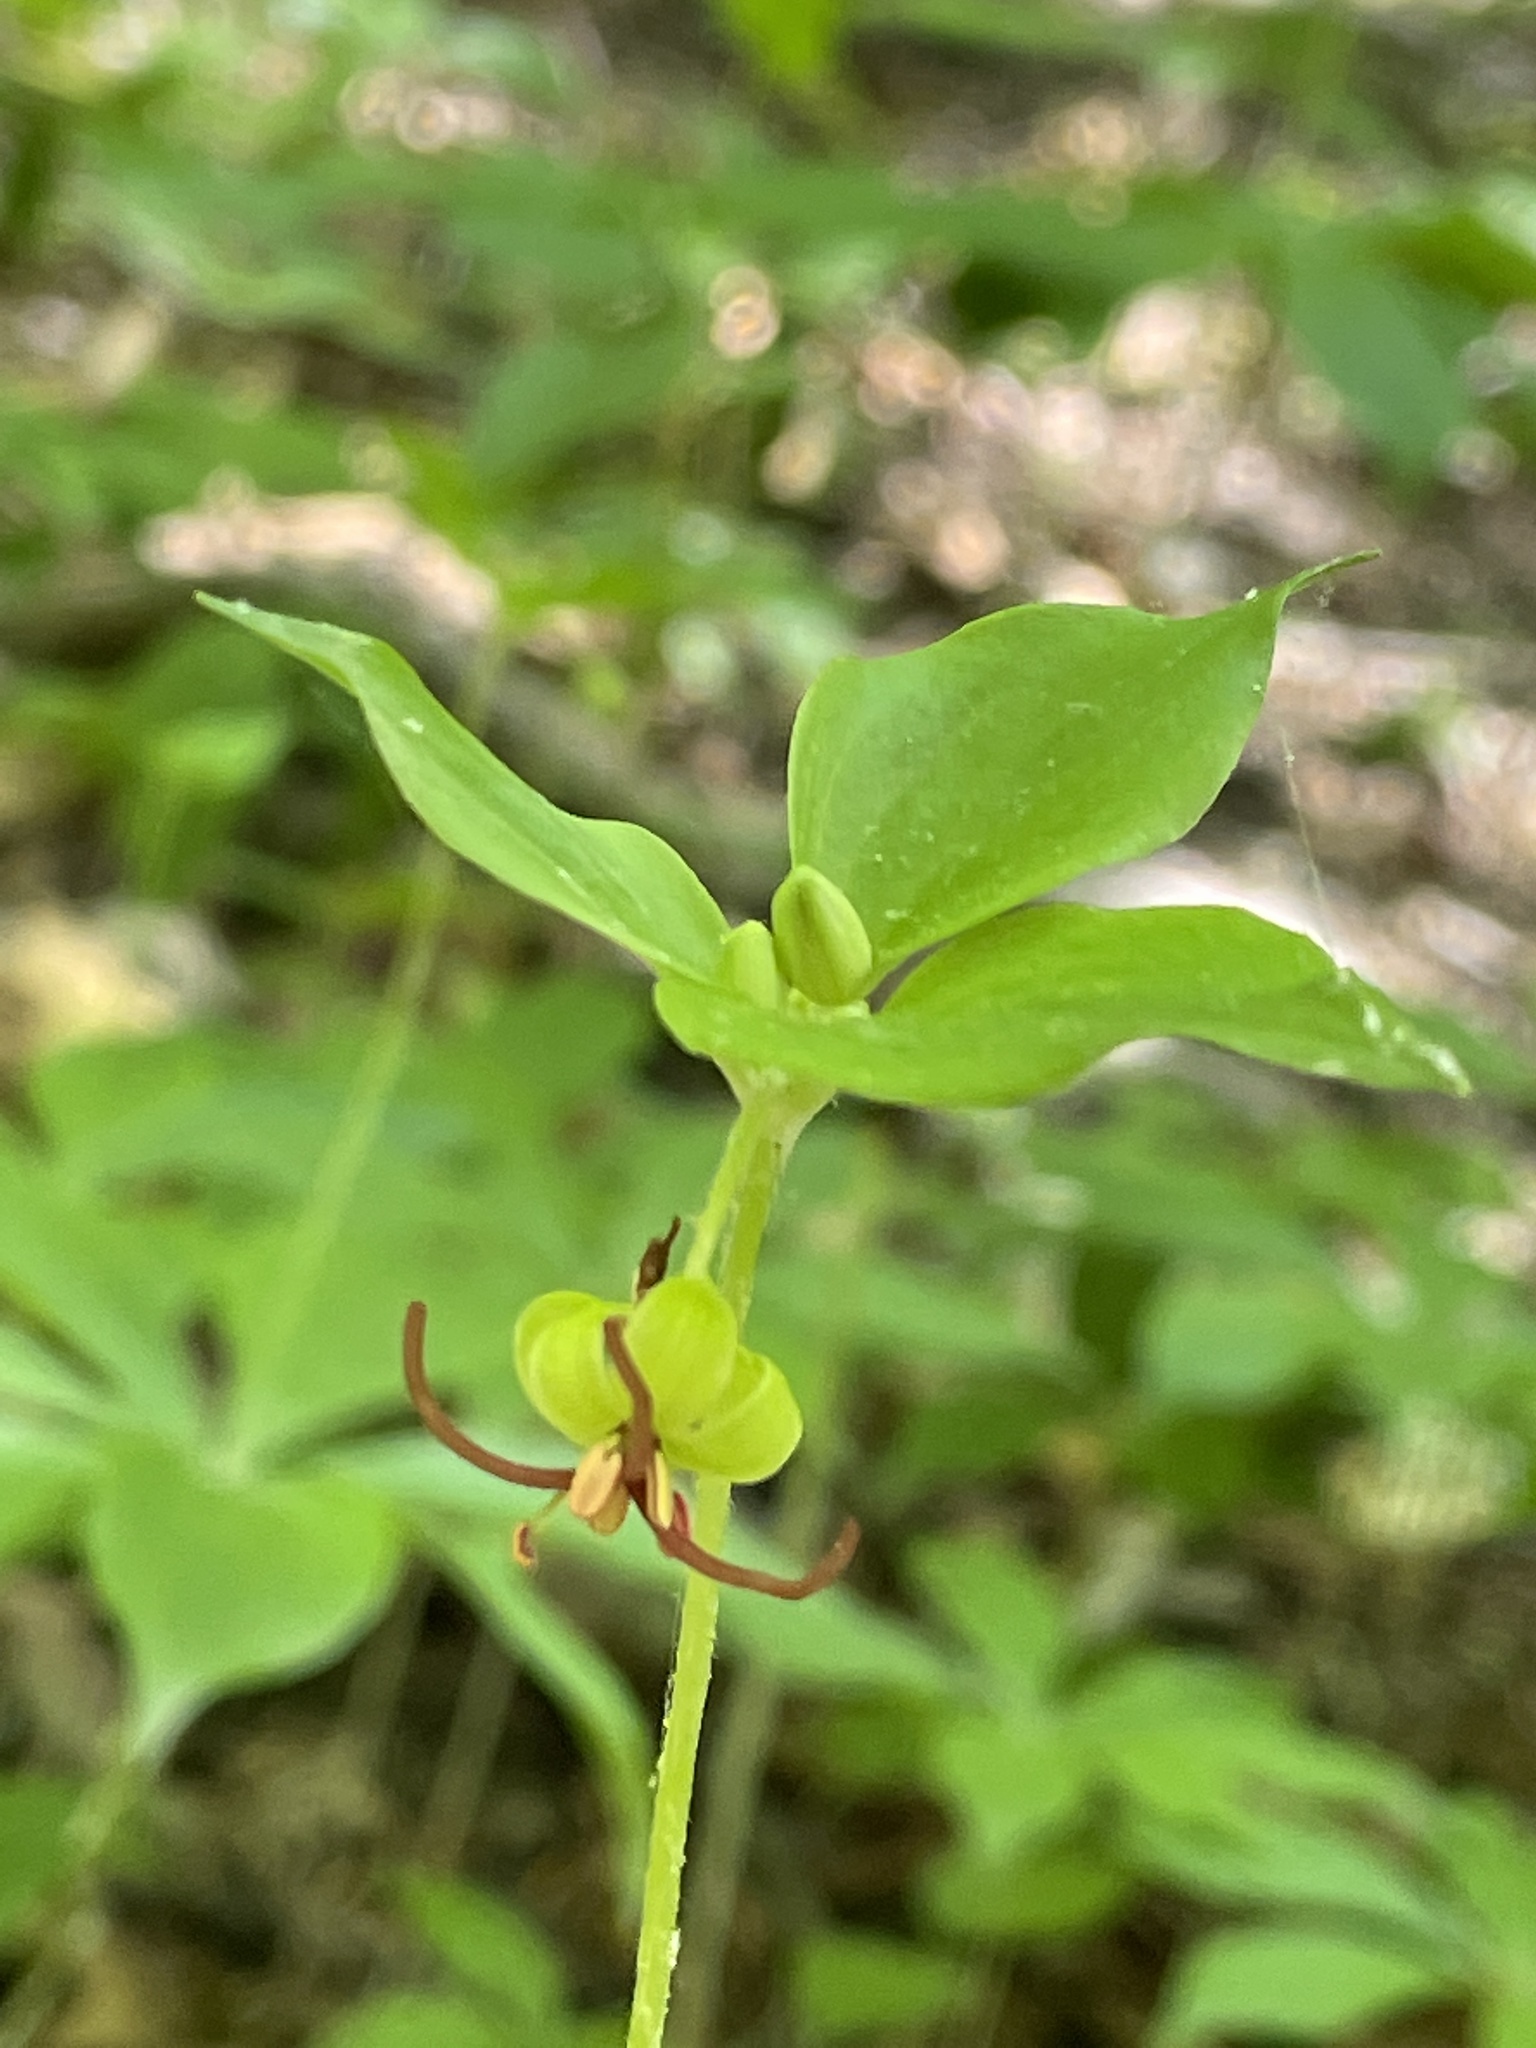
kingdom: Plantae
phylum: Tracheophyta
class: Liliopsida
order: Liliales
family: Liliaceae
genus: Medeola
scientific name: Medeola virginiana
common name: Indian cucumber-root
